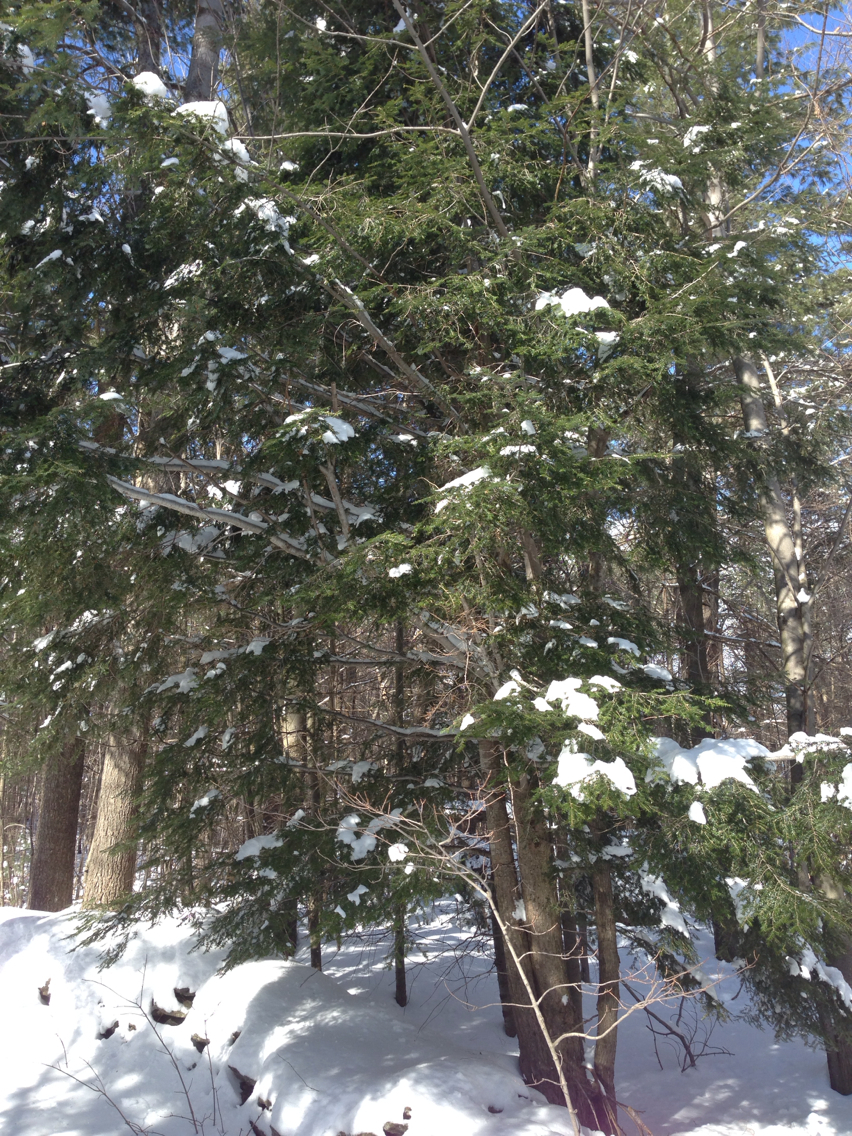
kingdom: Plantae
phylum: Tracheophyta
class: Pinopsida
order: Pinales
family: Pinaceae
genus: Tsuga
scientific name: Tsuga canadensis
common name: Eastern hemlock
